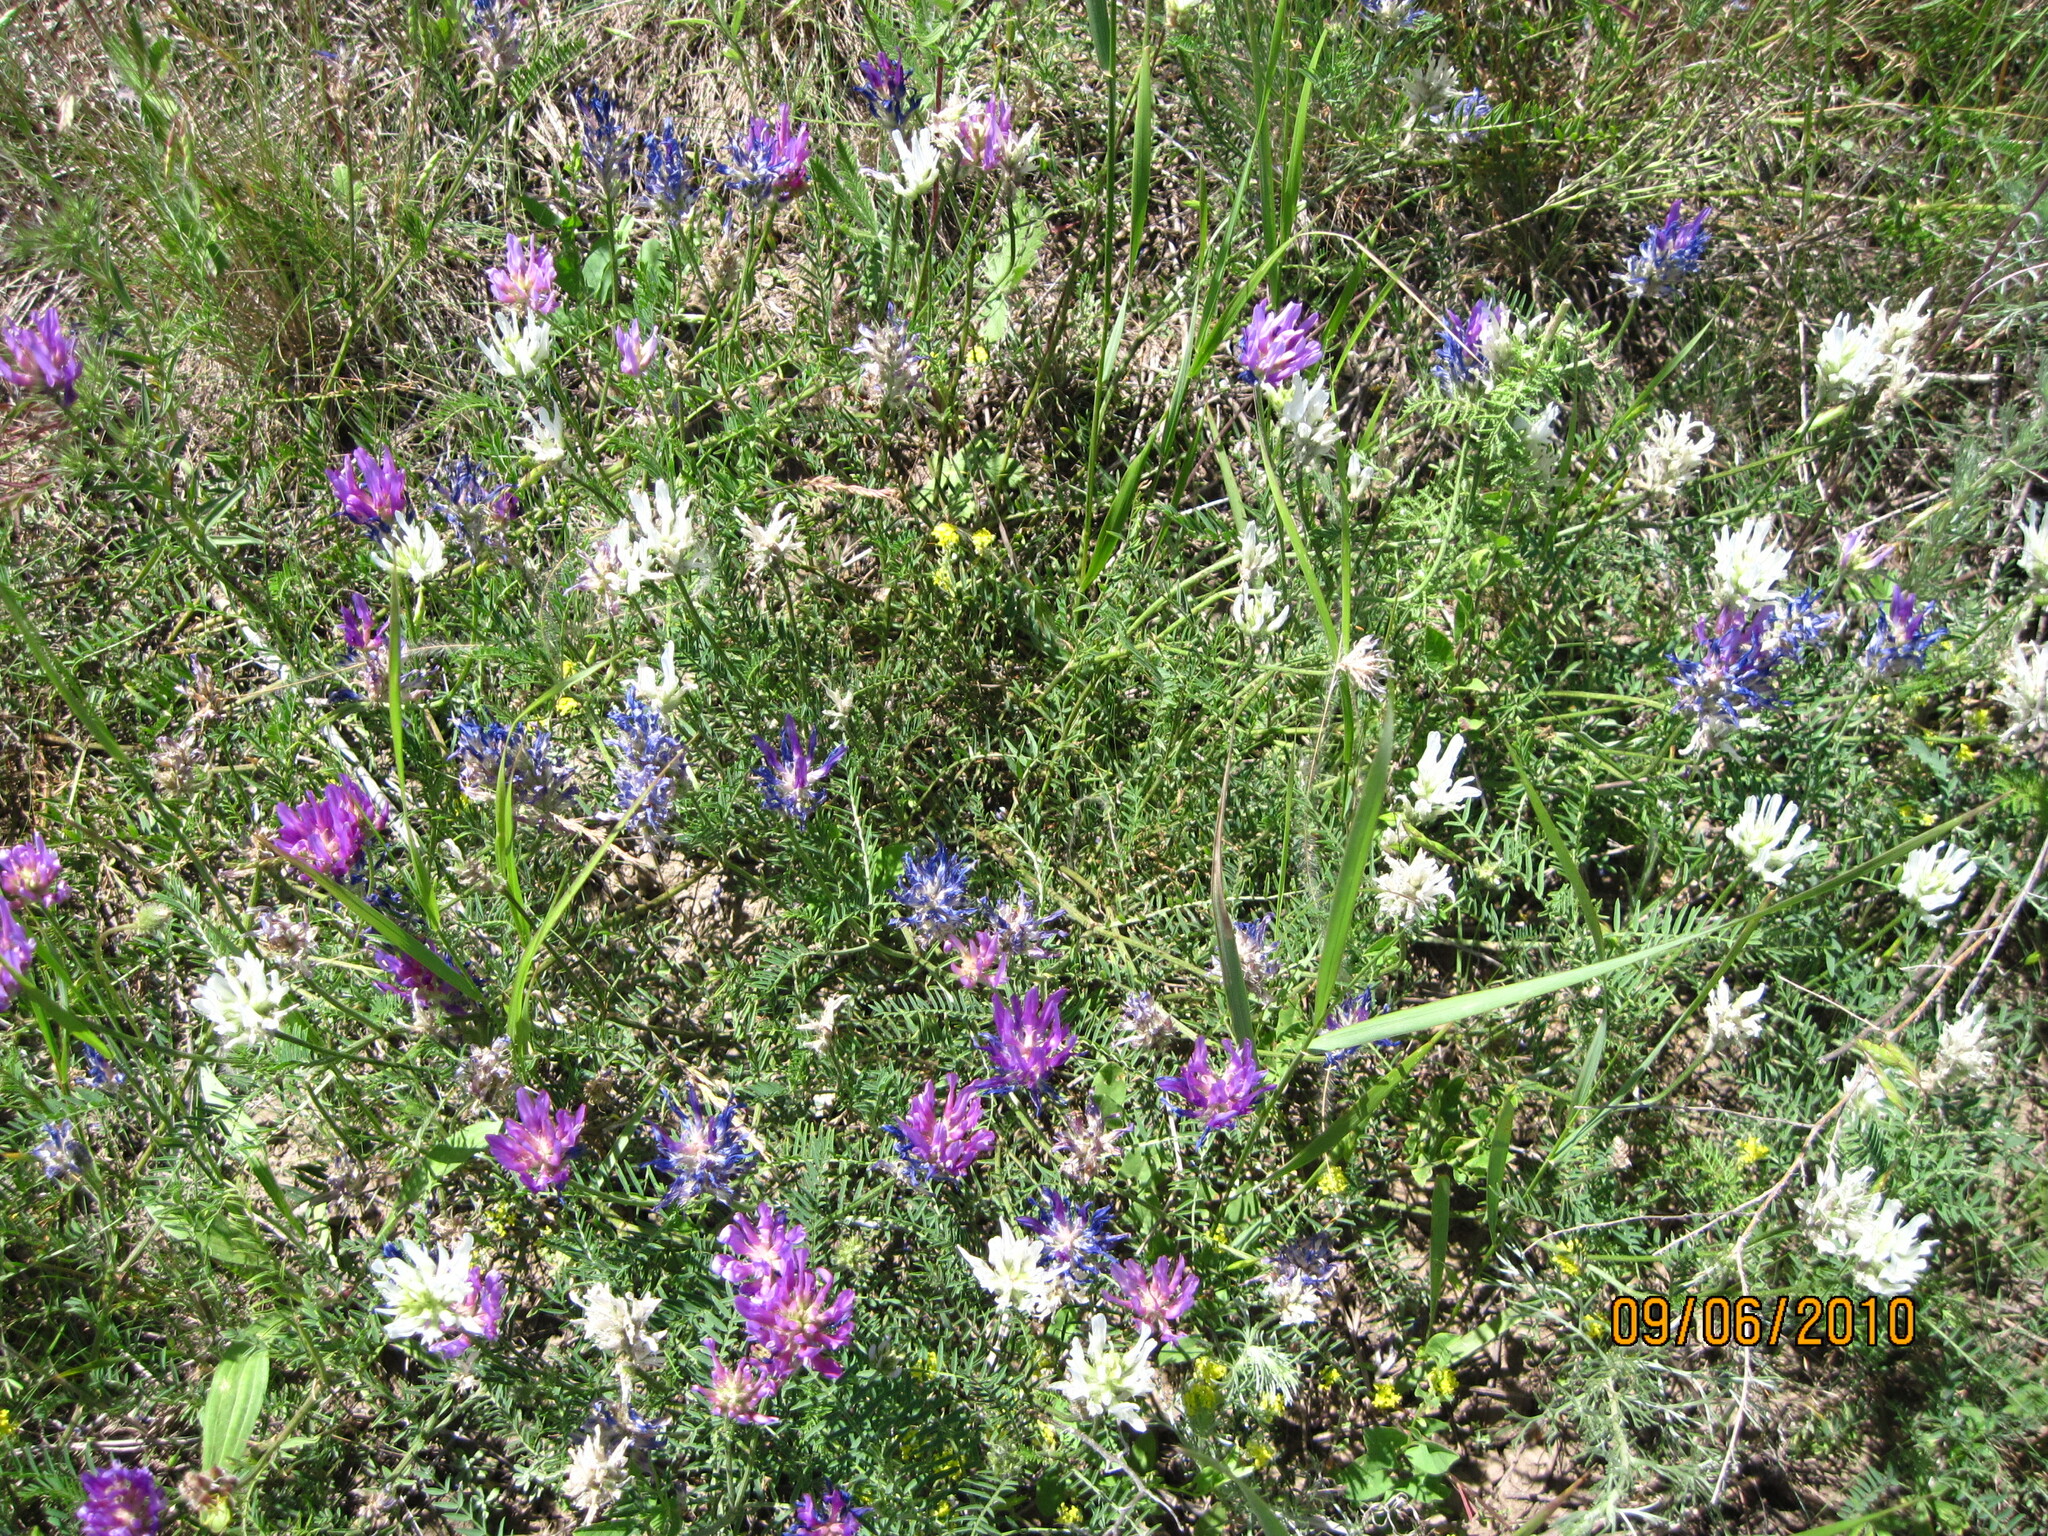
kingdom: Plantae
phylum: Tracheophyta
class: Magnoliopsida
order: Fabales
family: Fabaceae
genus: Astragalus
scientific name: Astragalus onobrychis
